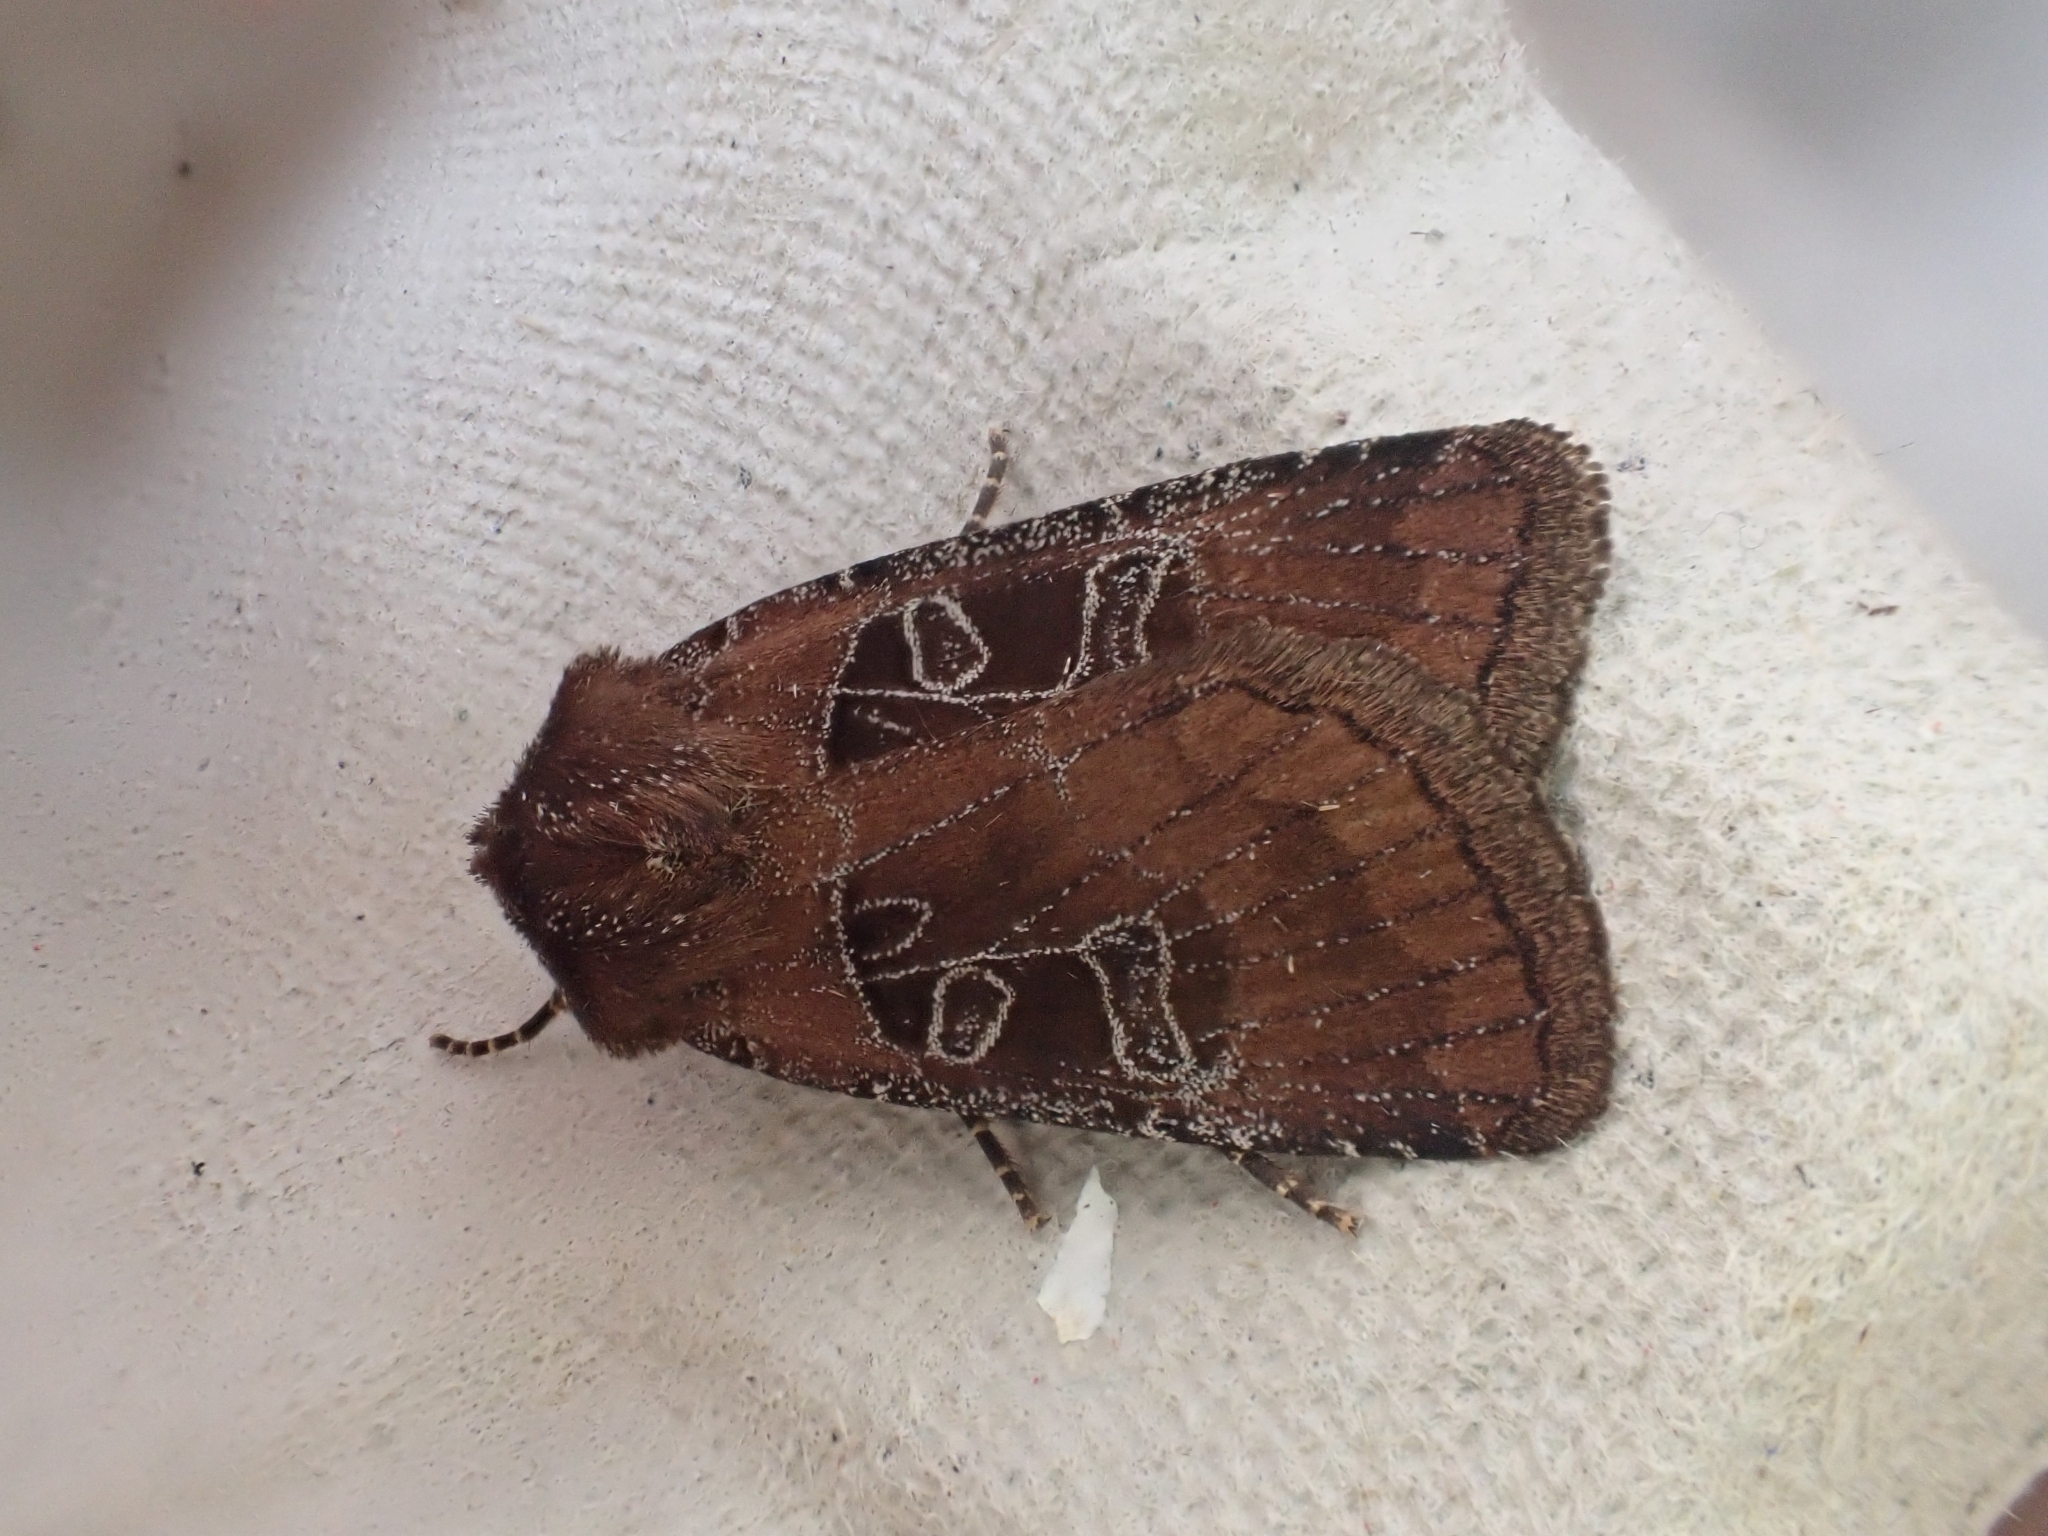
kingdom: Animalia
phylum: Arthropoda
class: Insecta
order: Lepidoptera
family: Noctuidae
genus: Chersotis
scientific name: Chersotis cuprea
